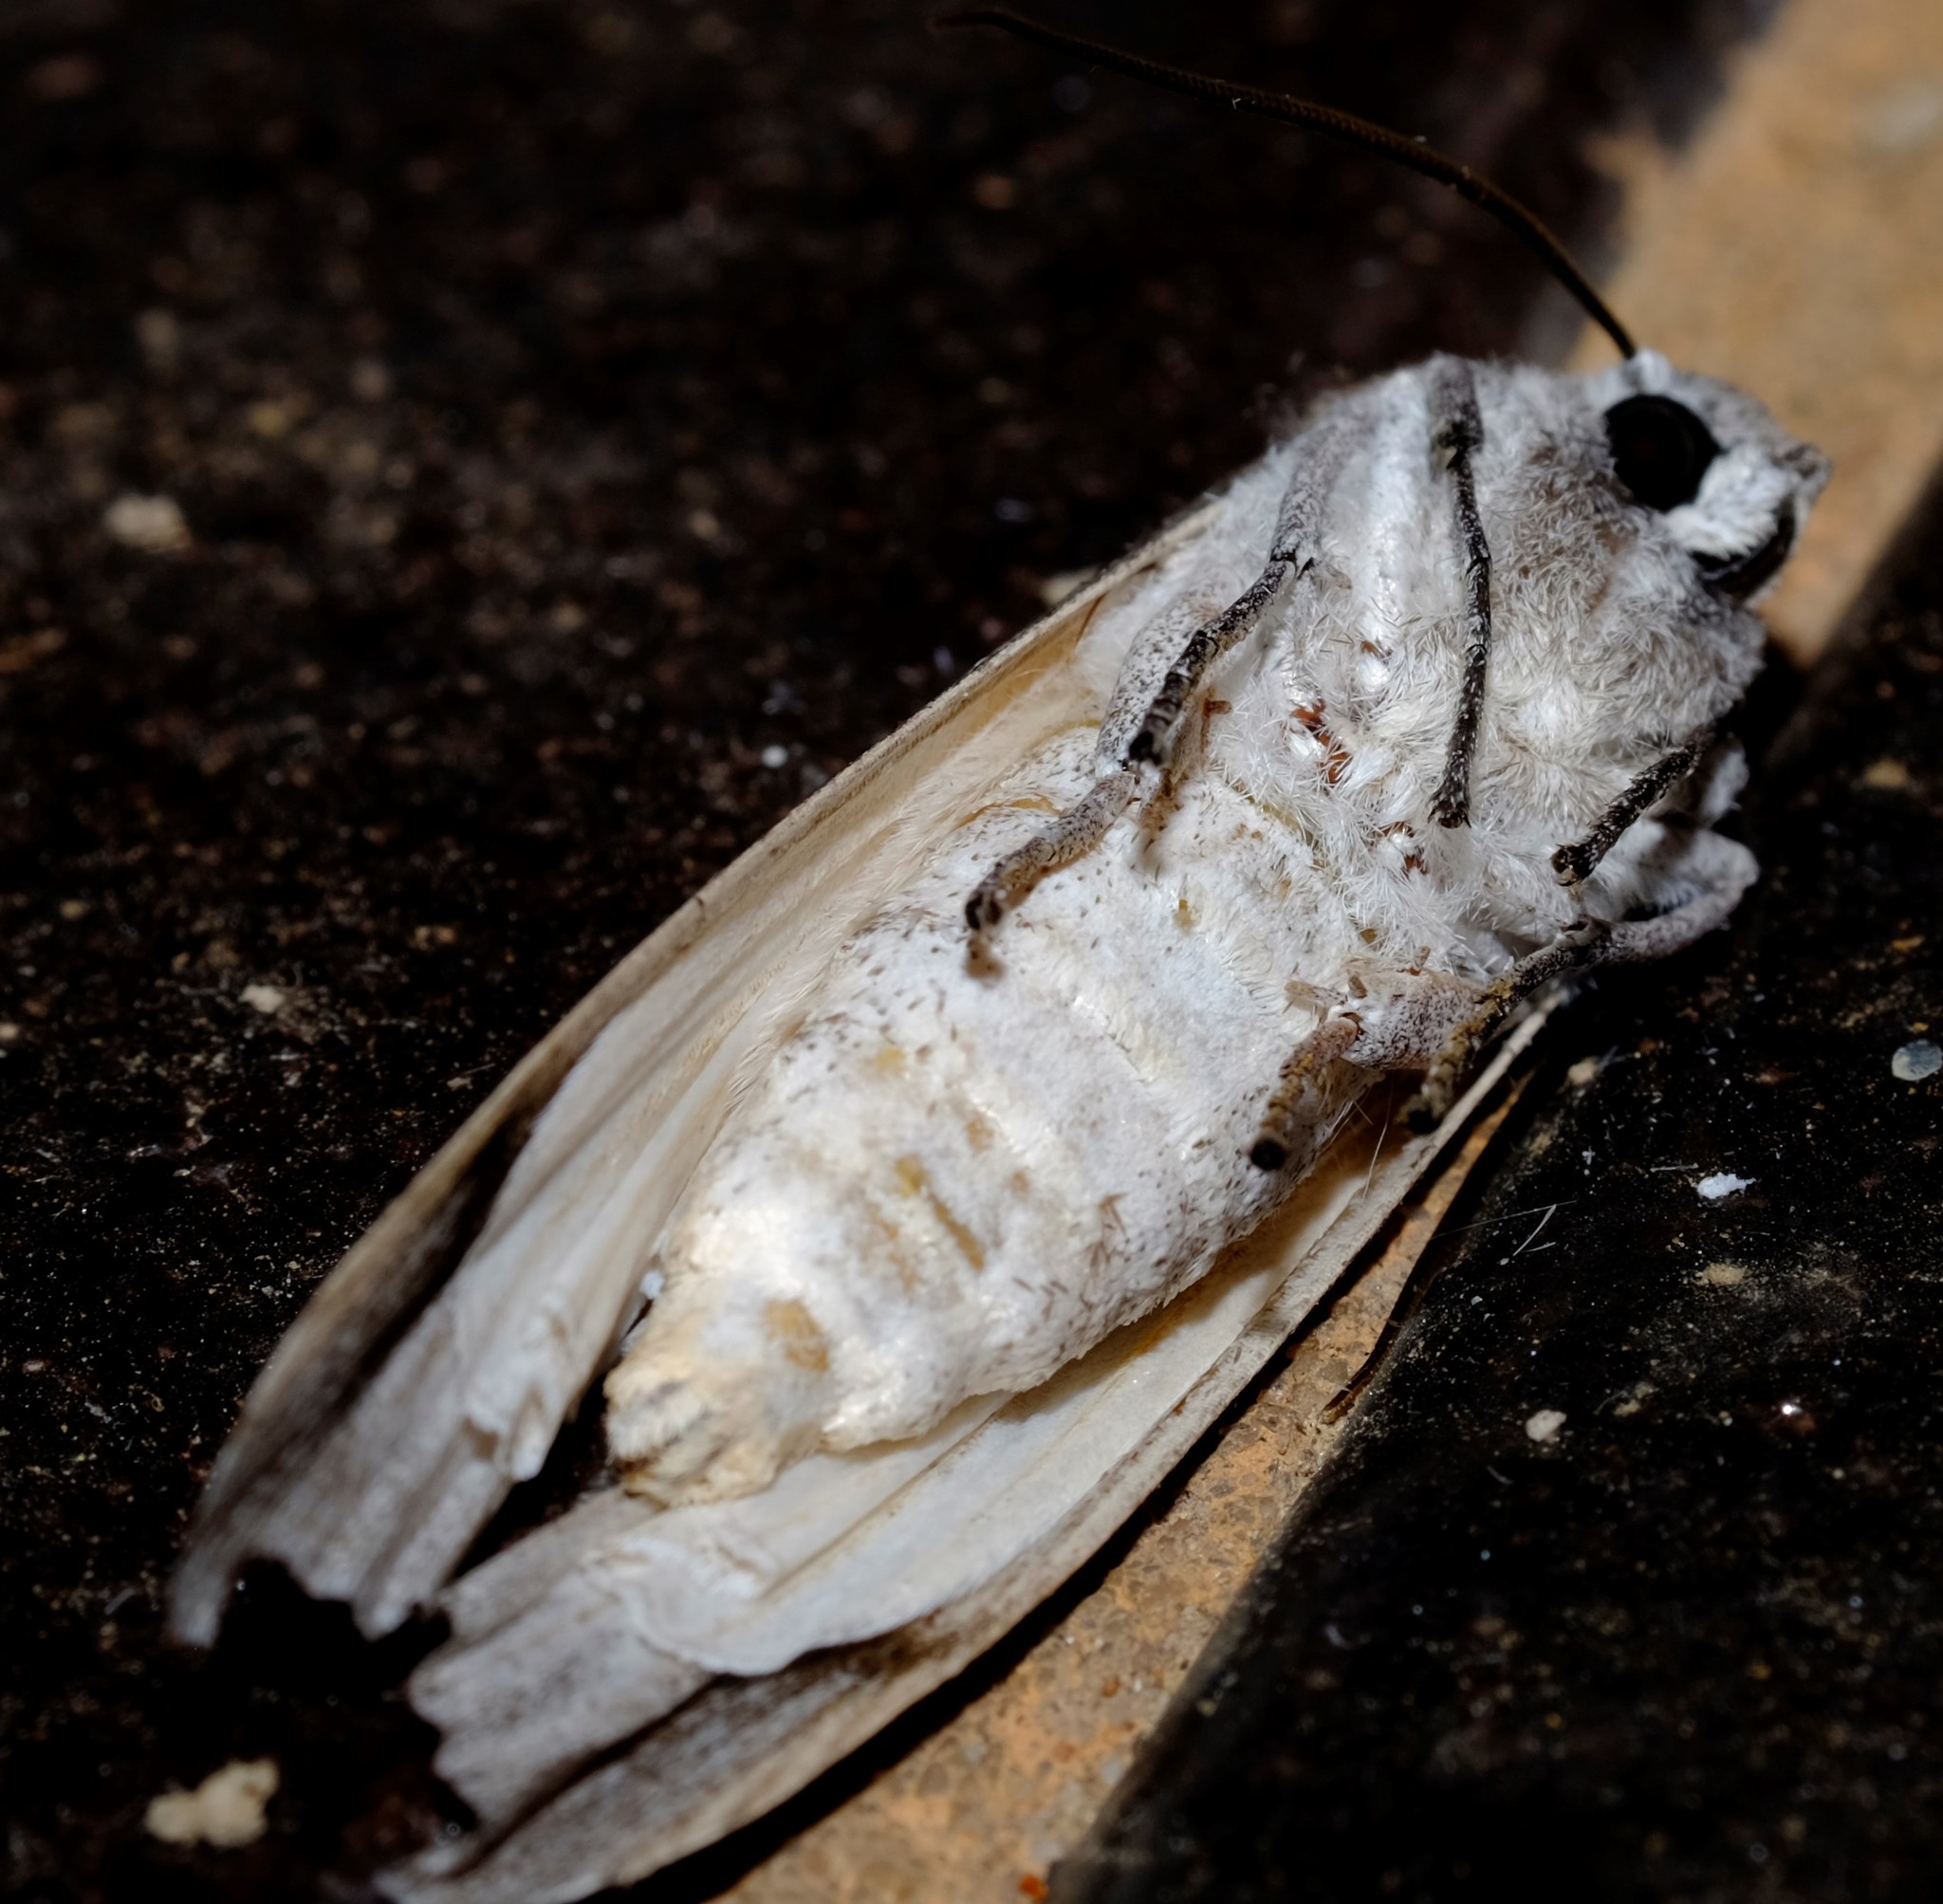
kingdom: Animalia
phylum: Arthropoda
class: Insecta
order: Lepidoptera
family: Geometridae
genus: Capusa
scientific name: Capusa cuculloides
